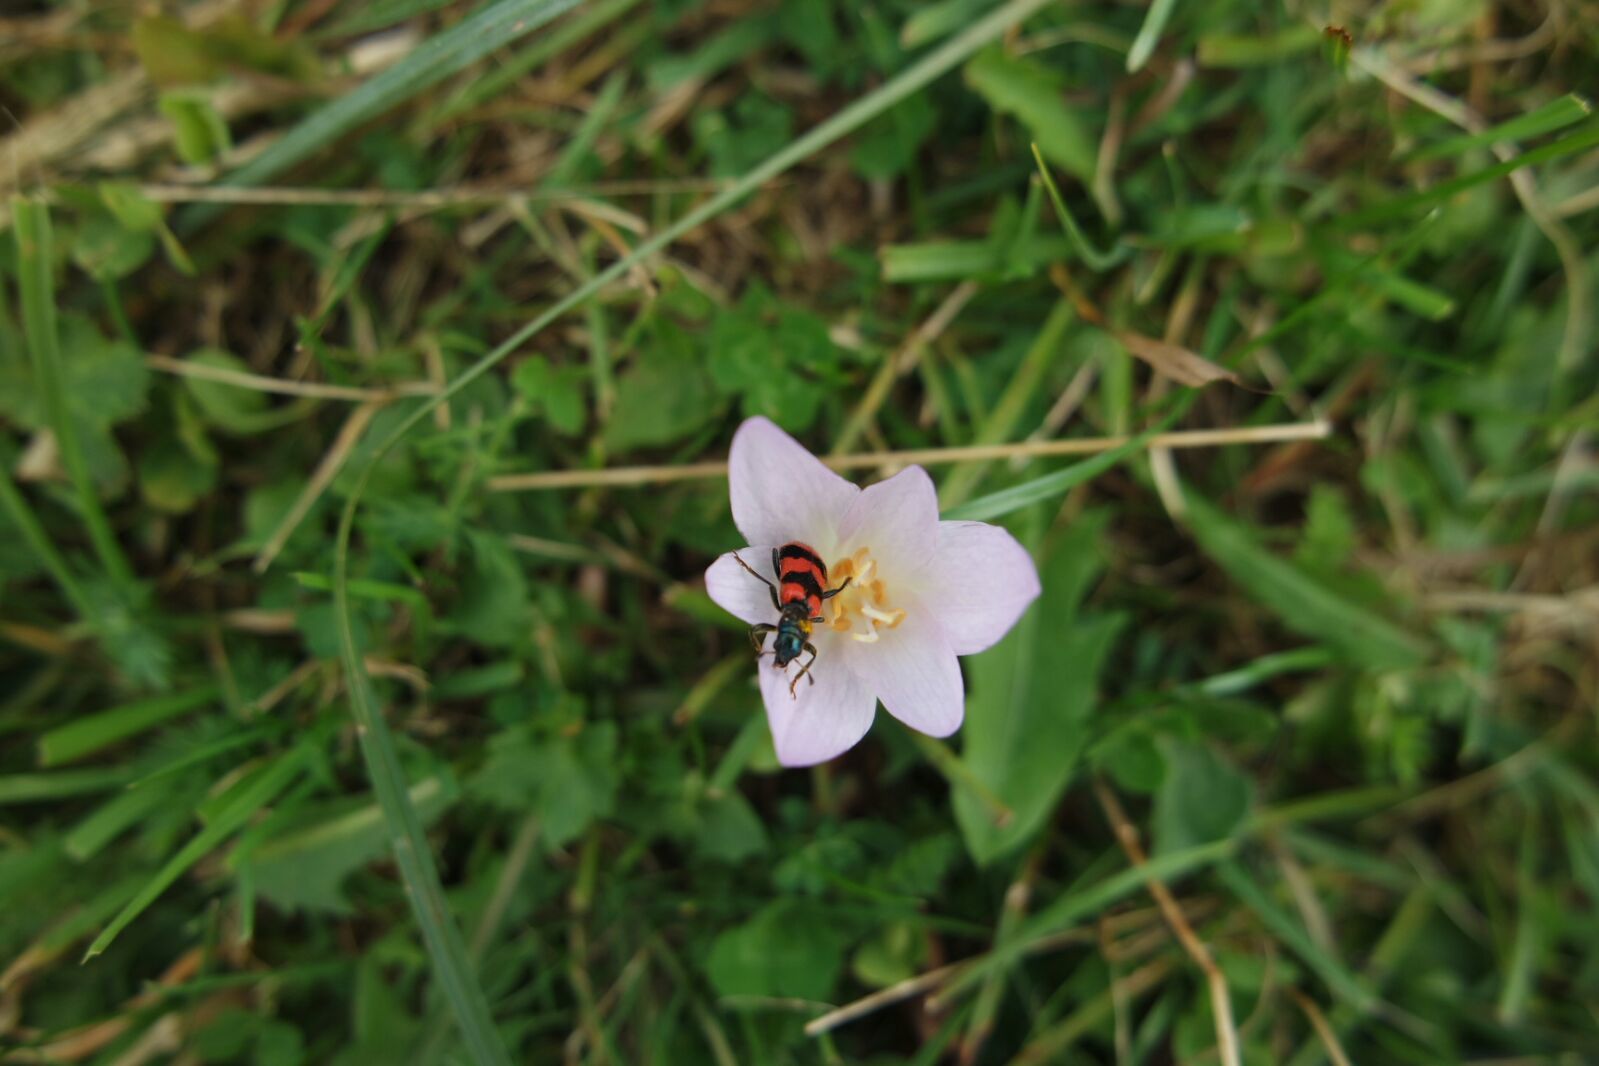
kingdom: Animalia
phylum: Arthropoda
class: Insecta
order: Coleoptera
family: Cleridae
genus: Trichodes
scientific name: Trichodes apiarius
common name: Bee-eating beetle
